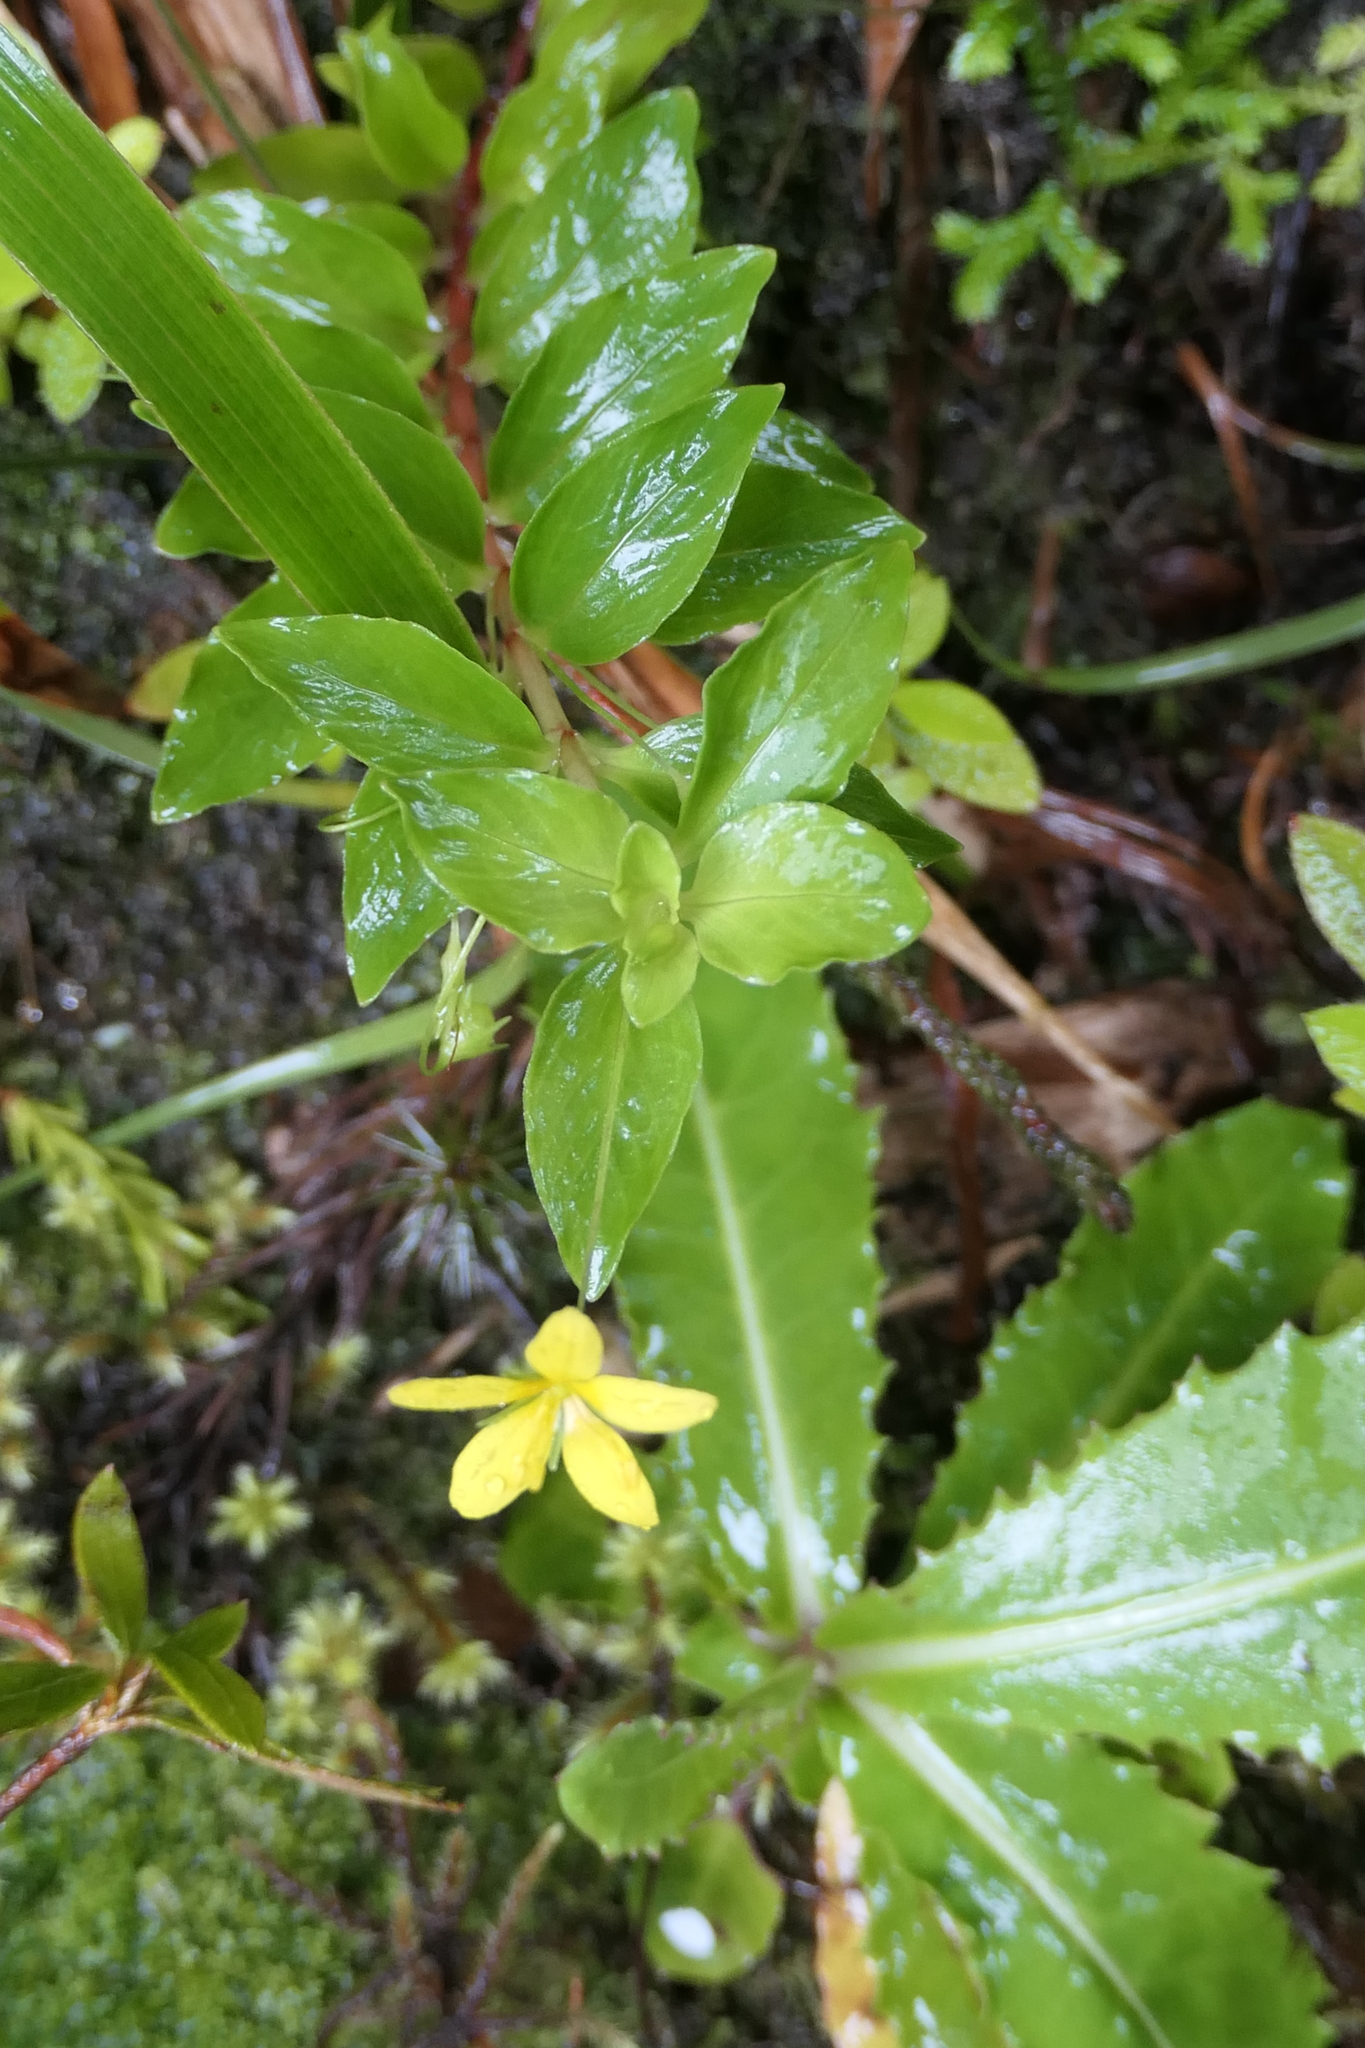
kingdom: Plantae
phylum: Tracheophyta
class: Magnoliopsida
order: Ericales
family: Primulaceae
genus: Lysimachia
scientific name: Lysimachia azorica
